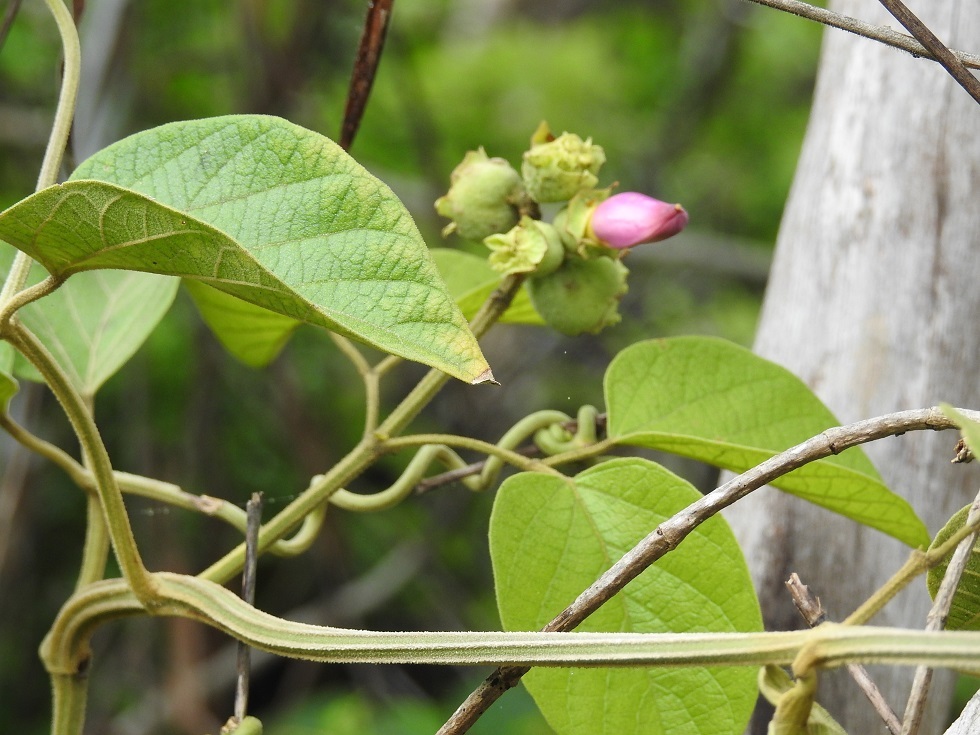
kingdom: Plantae
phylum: Tracheophyta
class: Magnoliopsida
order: Lamiales
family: Bignoniaceae
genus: Amphilophium
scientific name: Amphilophium paniculatum
